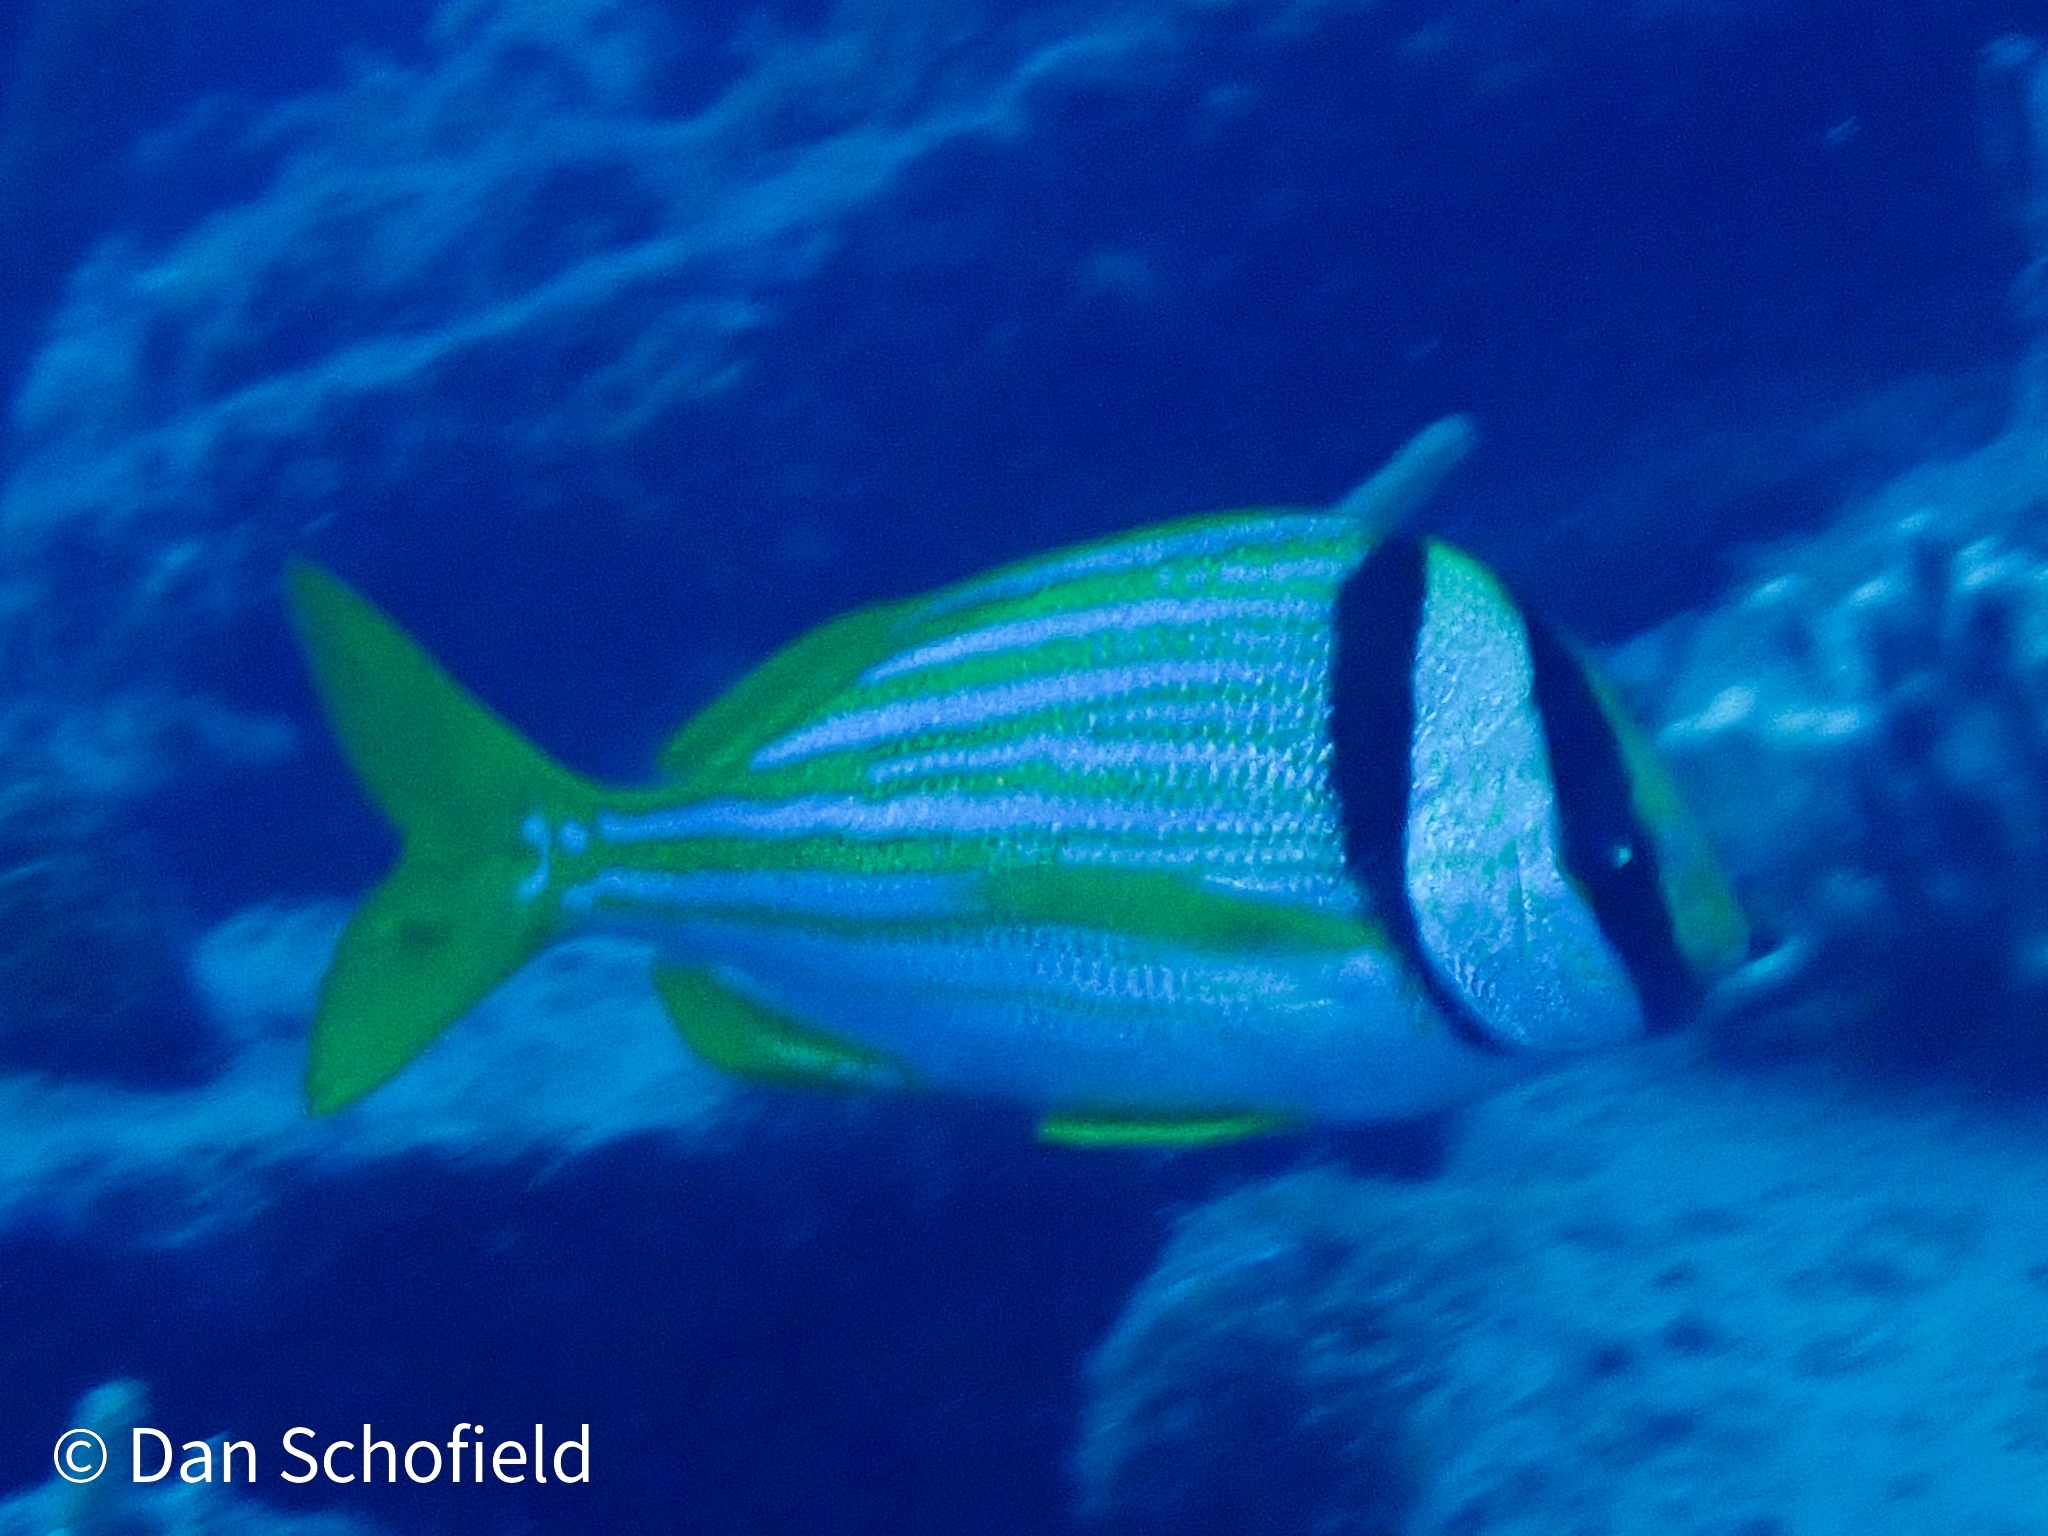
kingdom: Animalia
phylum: Chordata
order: Perciformes
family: Haemulidae
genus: Anisotremus
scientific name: Anisotremus virginicus
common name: Porkfish
